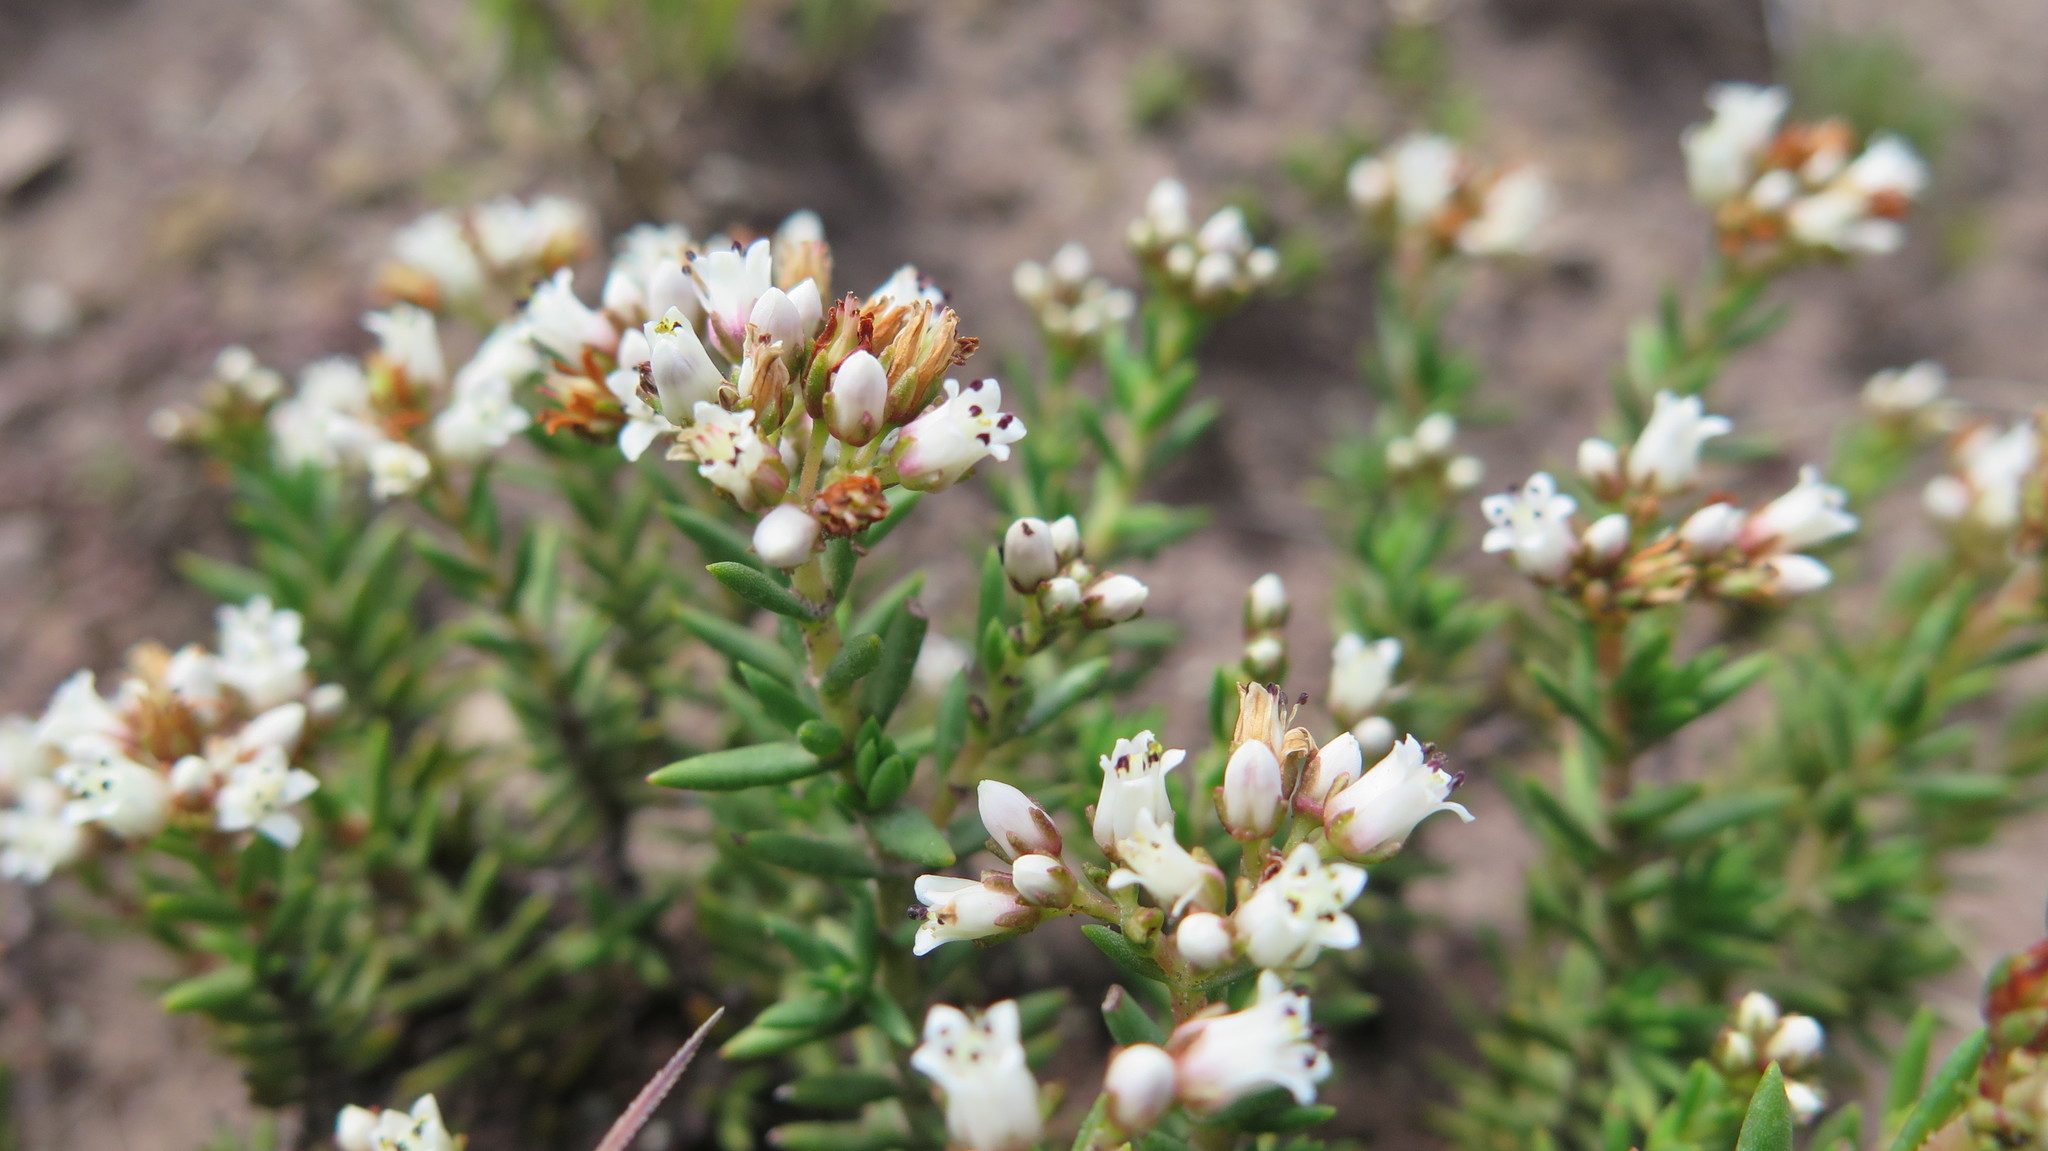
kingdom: Plantae
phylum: Tracheophyta
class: Magnoliopsida
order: Saxifragales
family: Crassulaceae
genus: Crassula
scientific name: Crassula dependens
